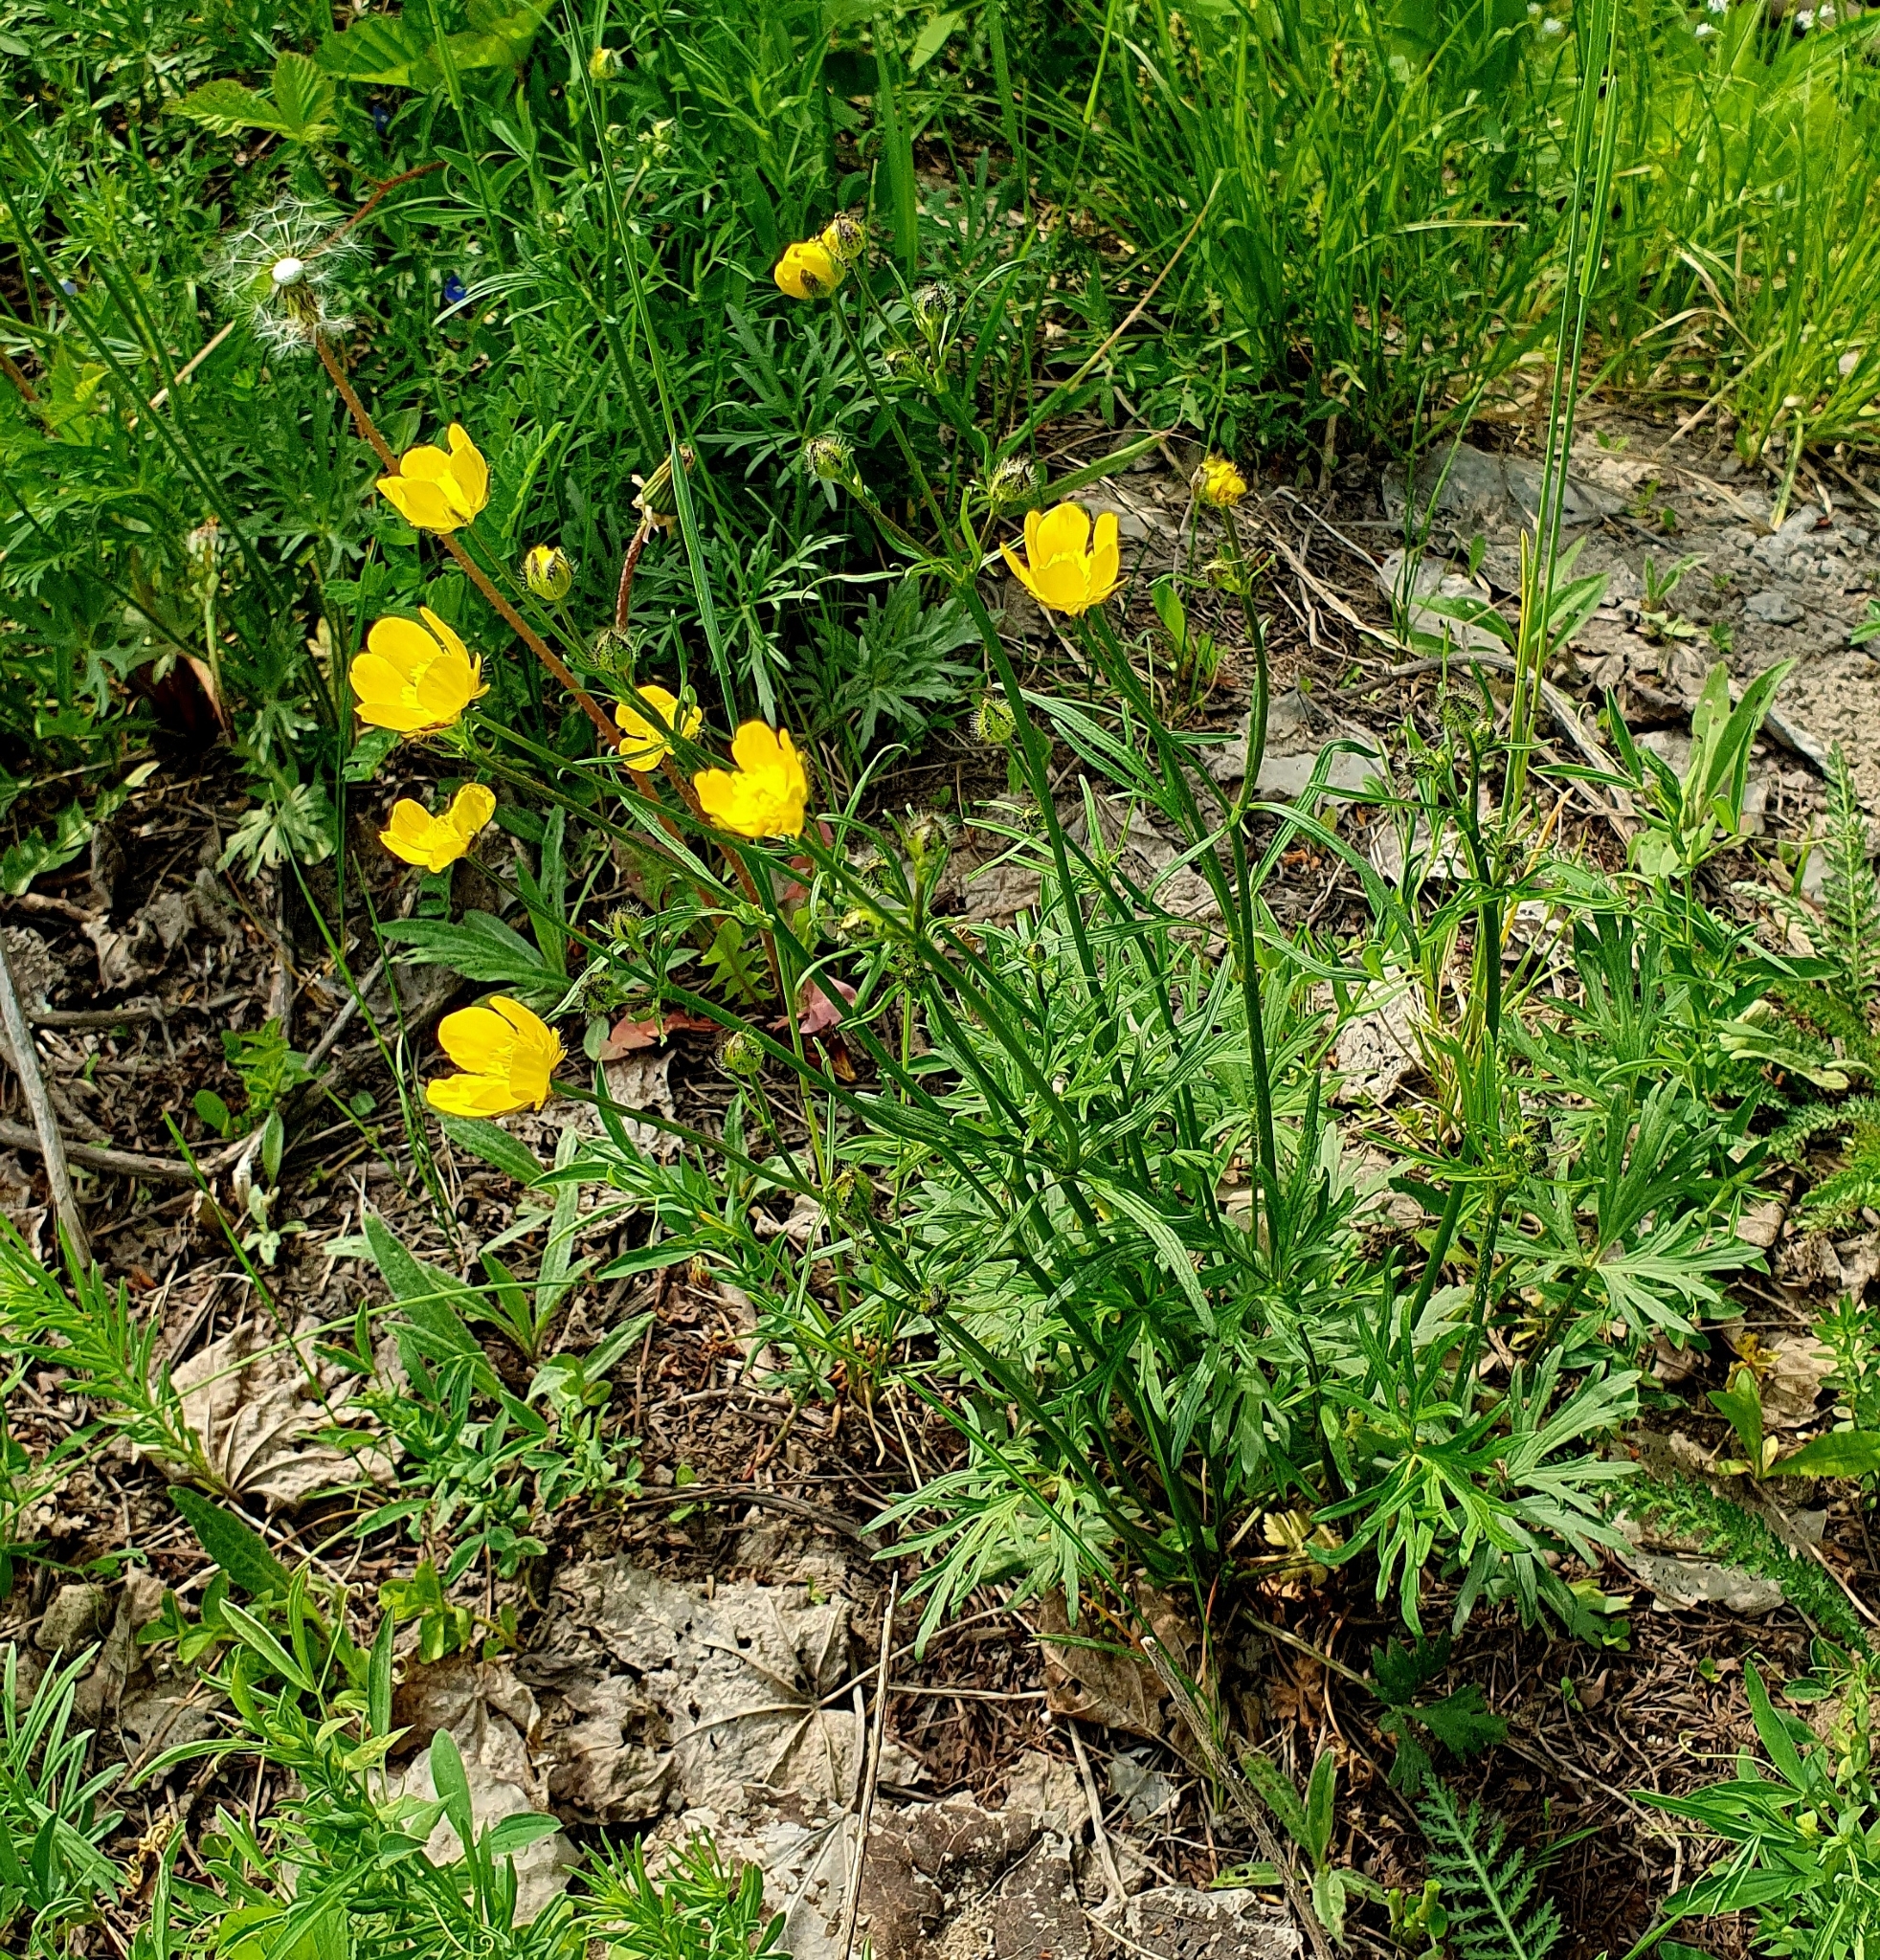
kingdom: Plantae
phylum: Tracheophyta
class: Magnoliopsida
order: Ranunculales
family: Ranunculaceae
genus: Ranunculus
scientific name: Ranunculus polyanthemos
